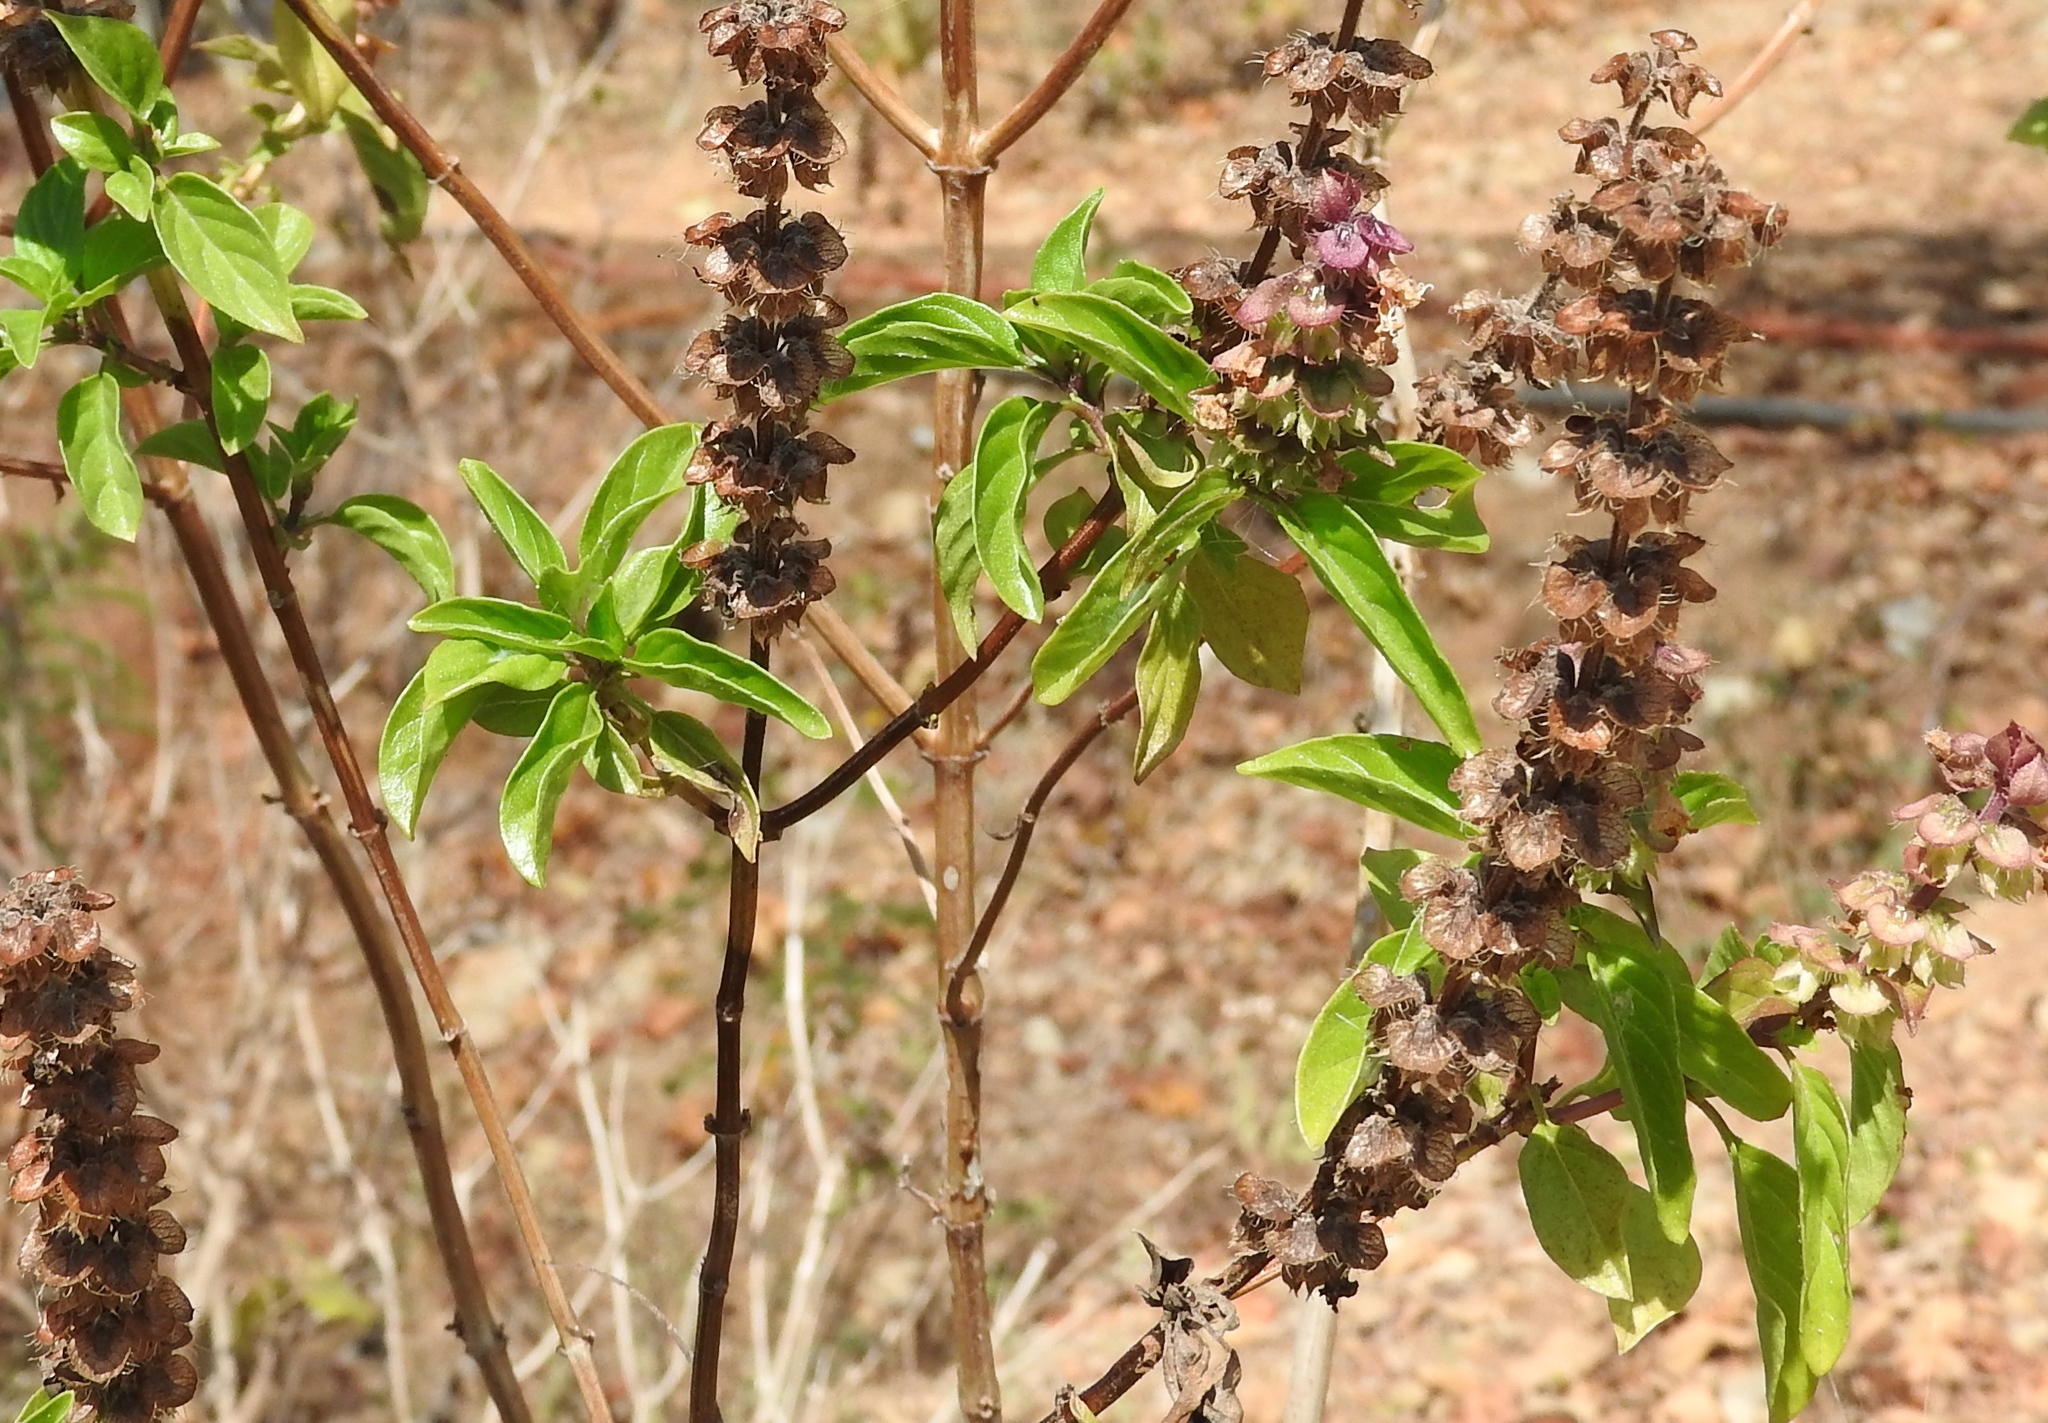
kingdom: Plantae
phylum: Tracheophyta
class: Magnoliopsida
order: Lamiales
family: Lamiaceae
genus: Ocimum
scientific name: Ocimum campechianum
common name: Mosquito basil
